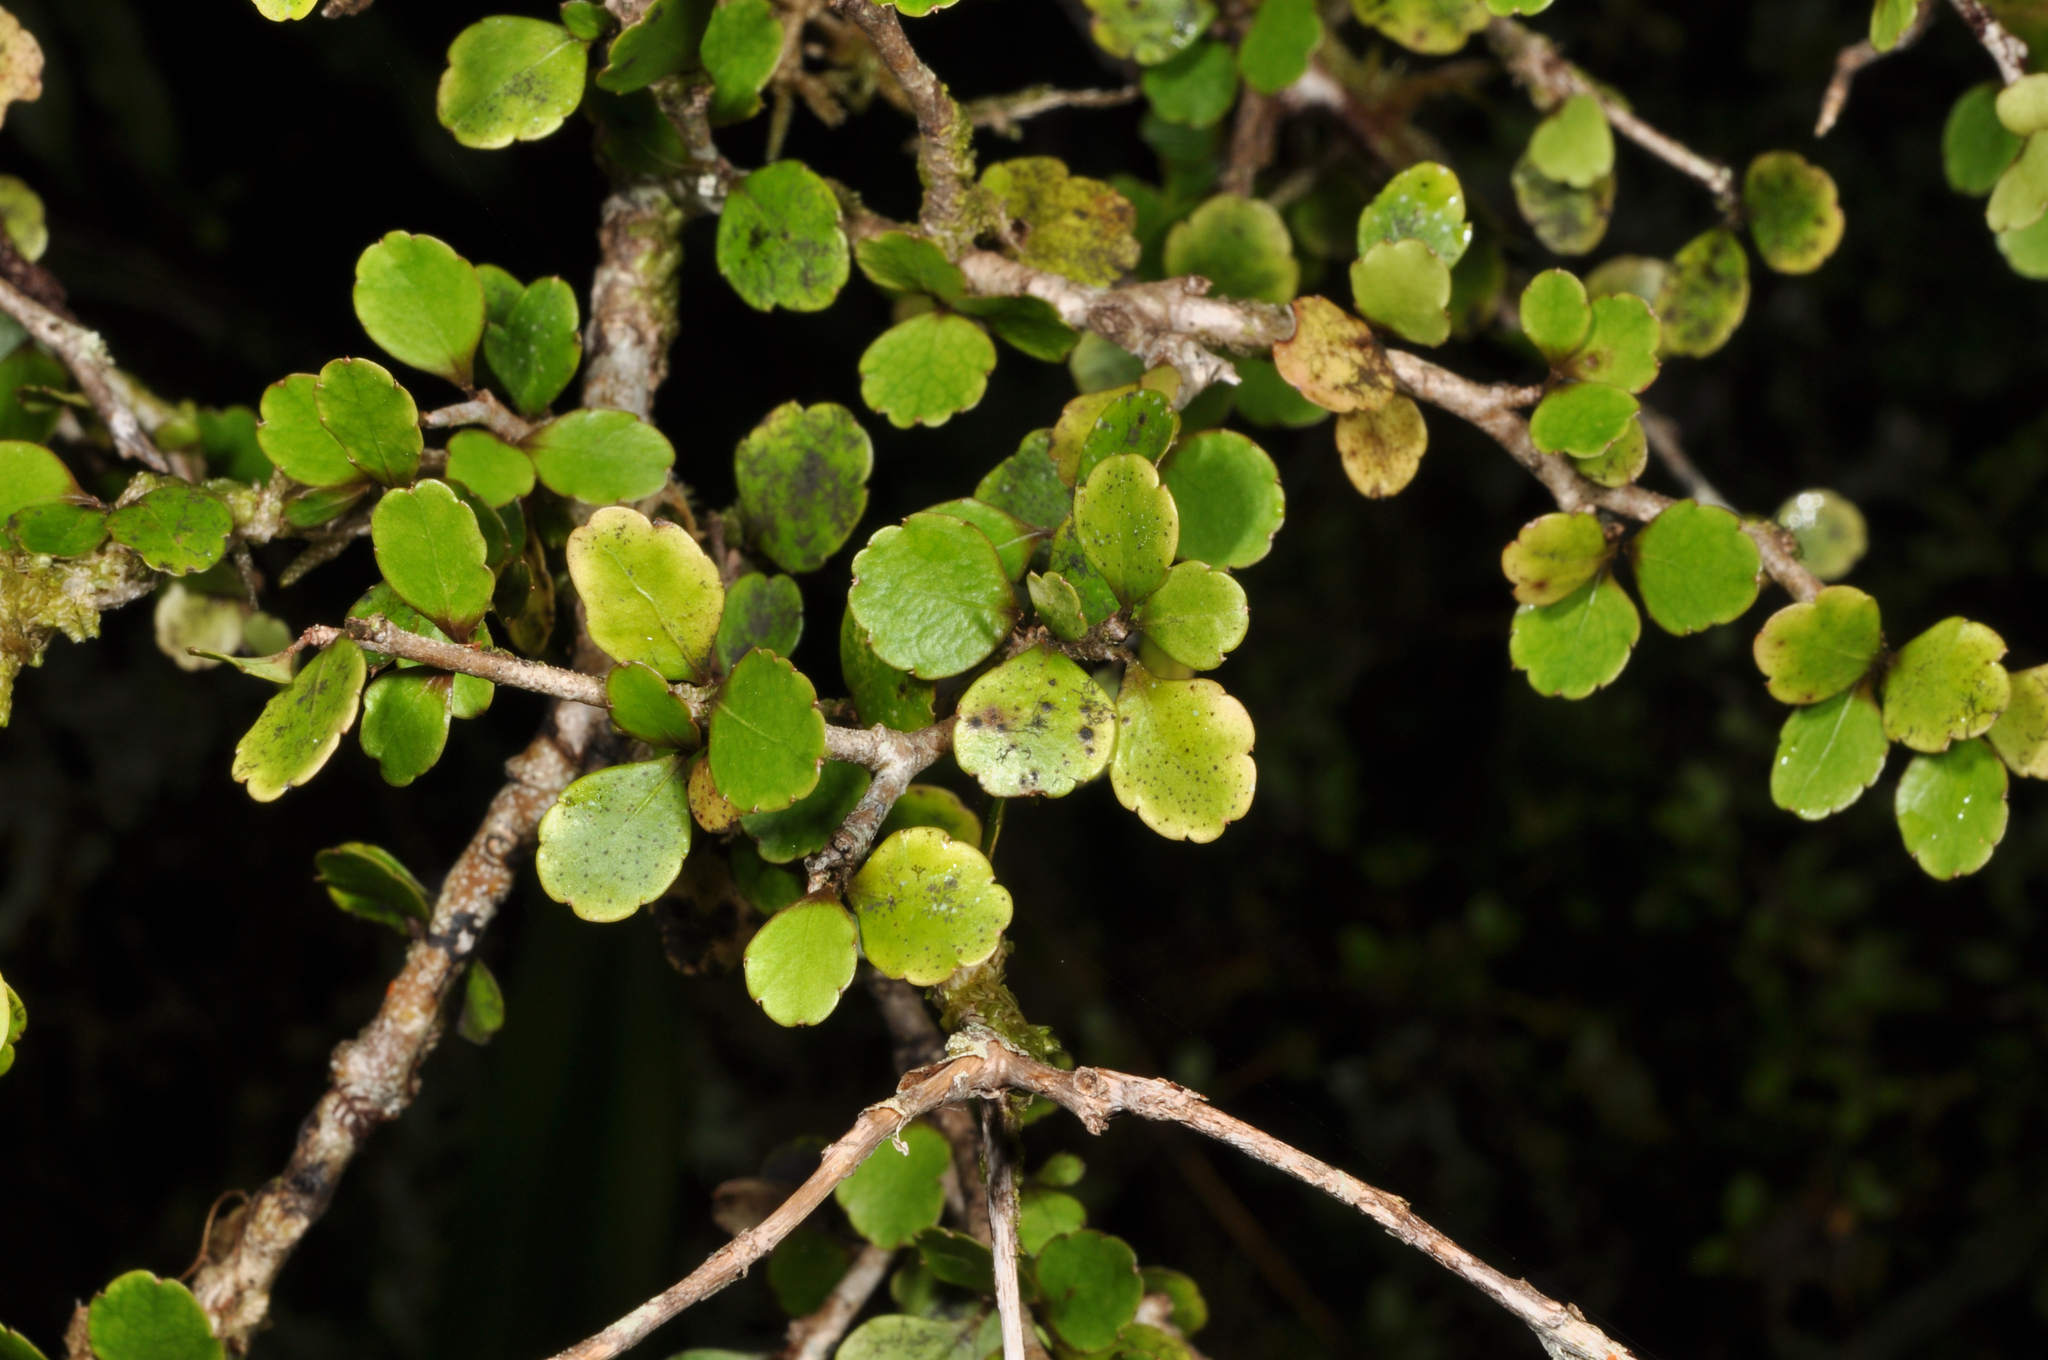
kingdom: Plantae
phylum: Tracheophyta
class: Magnoliopsida
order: Apiales
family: Araliaceae
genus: Raukaua
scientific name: Raukaua anomalus
